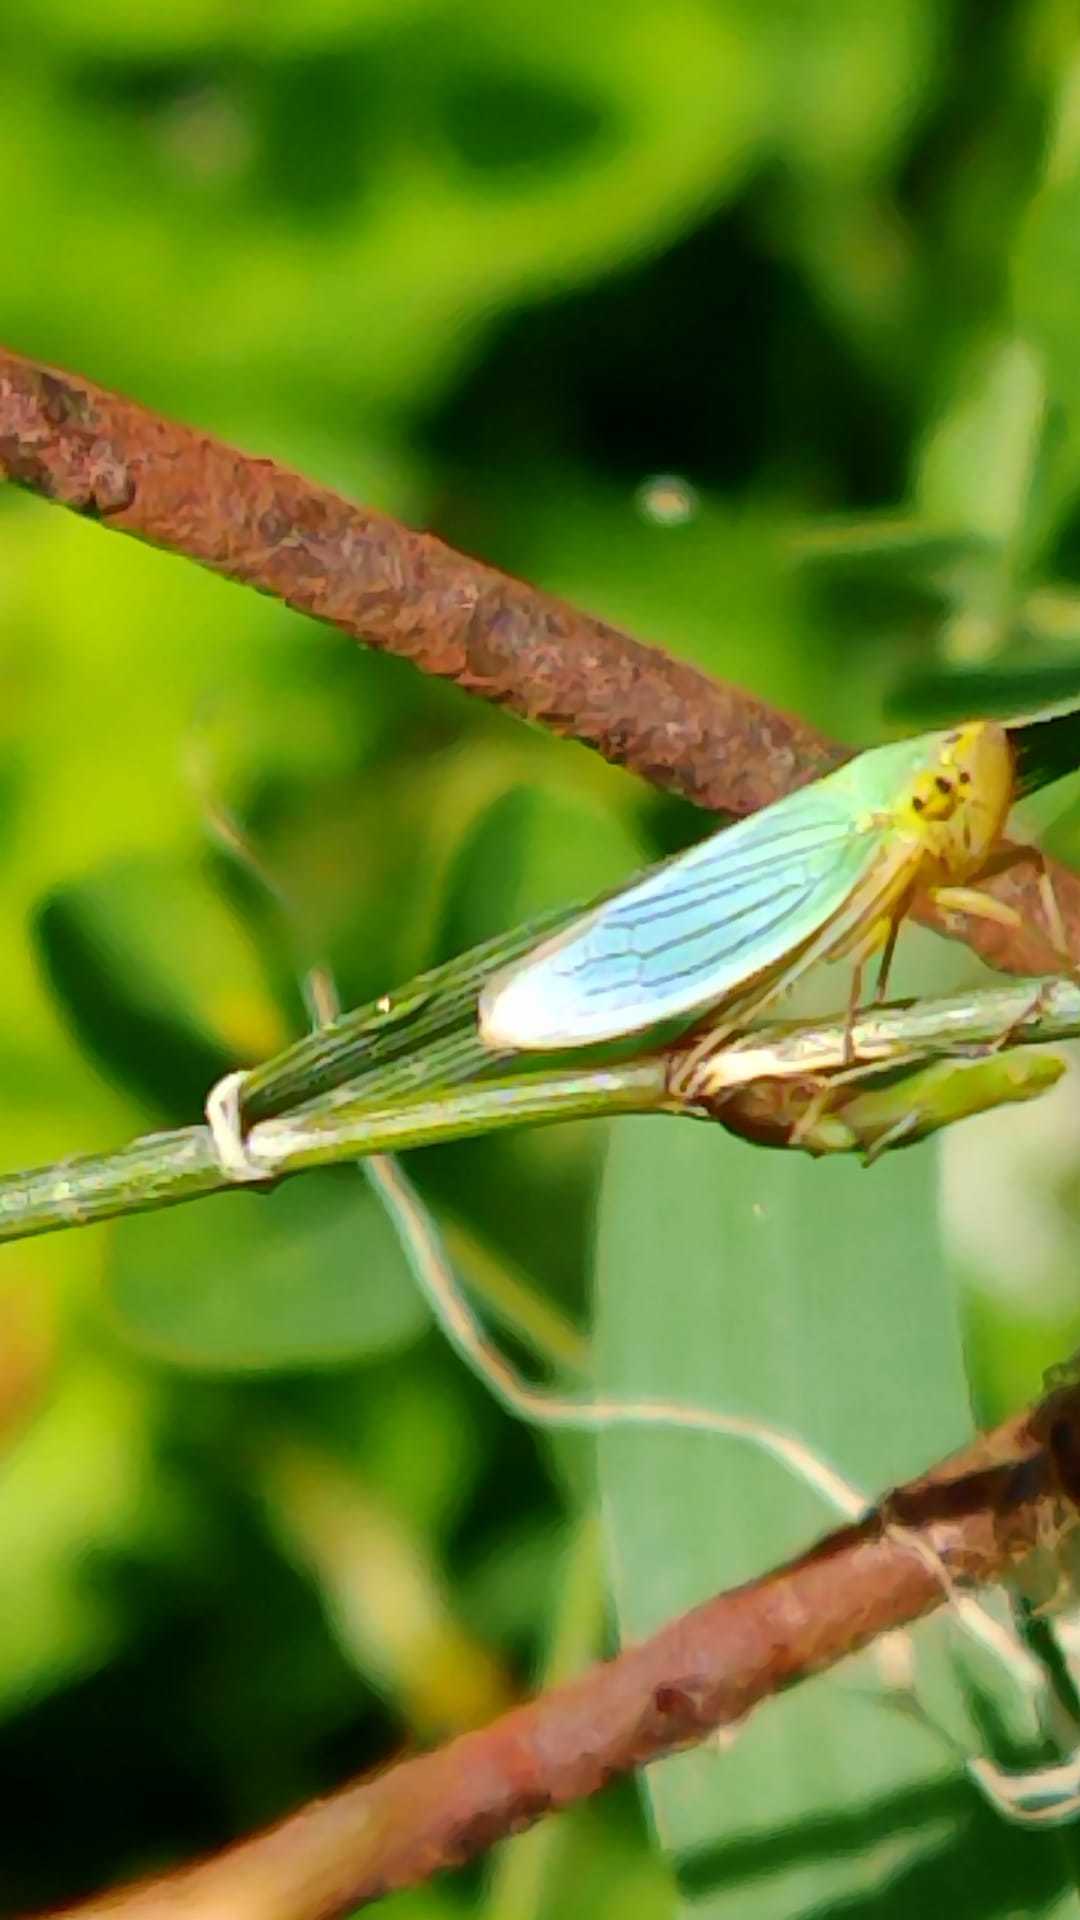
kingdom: Animalia
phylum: Arthropoda
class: Insecta
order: Hemiptera
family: Cicadellidae
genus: Cicadella
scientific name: Cicadella viridis
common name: Leafhopper
